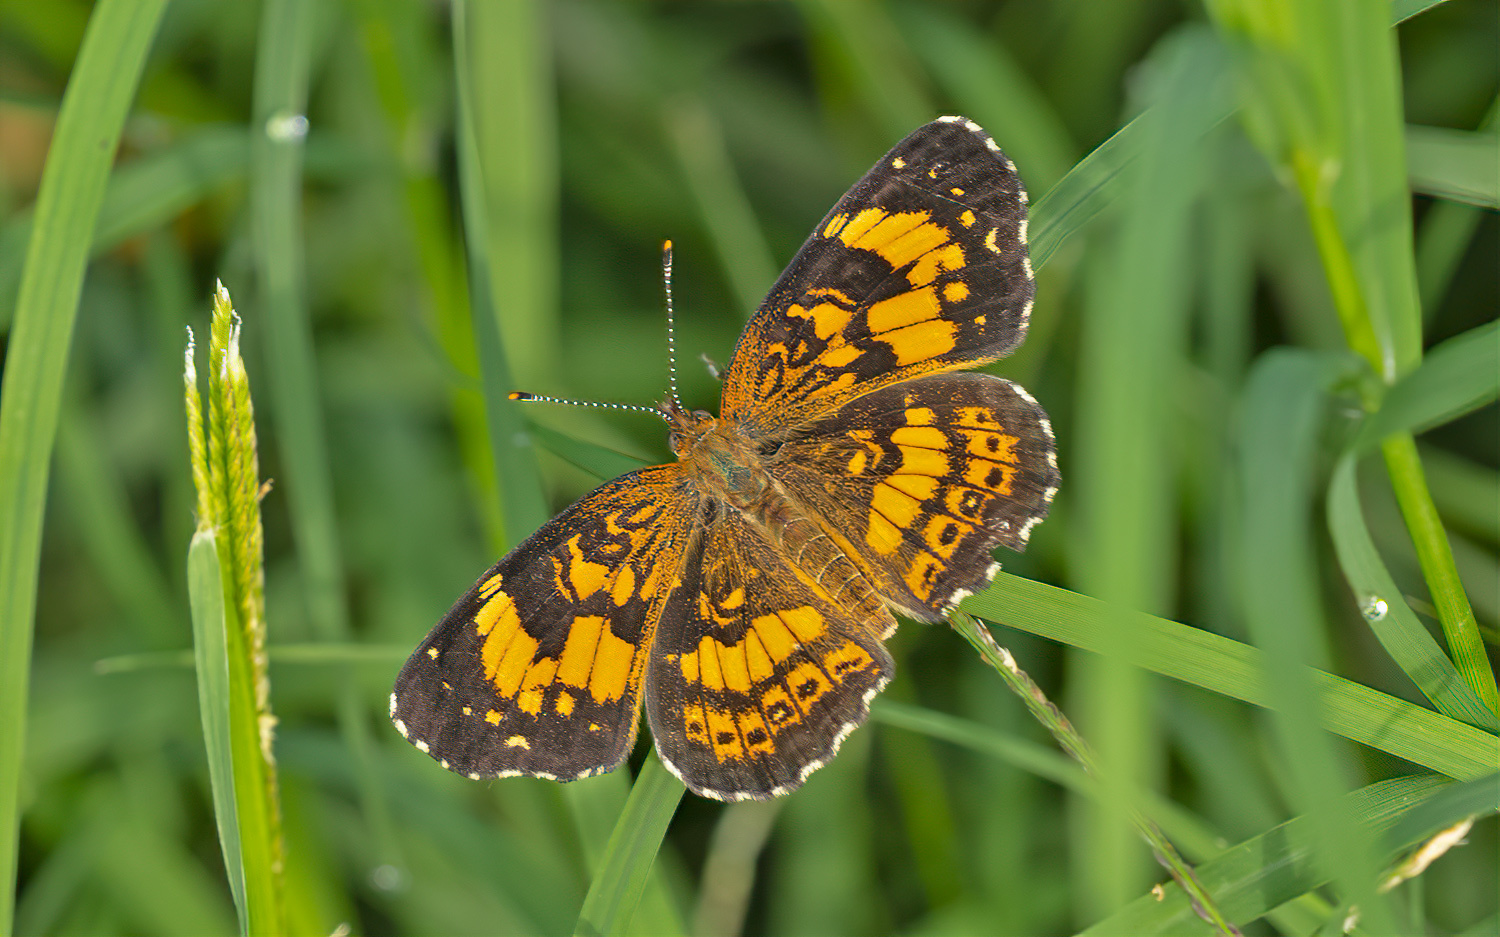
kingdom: Animalia
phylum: Arthropoda
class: Insecta
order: Lepidoptera
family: Nymphalidae
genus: Chlosyne
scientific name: Chlosyne nycteis
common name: Silvery checkerspot
